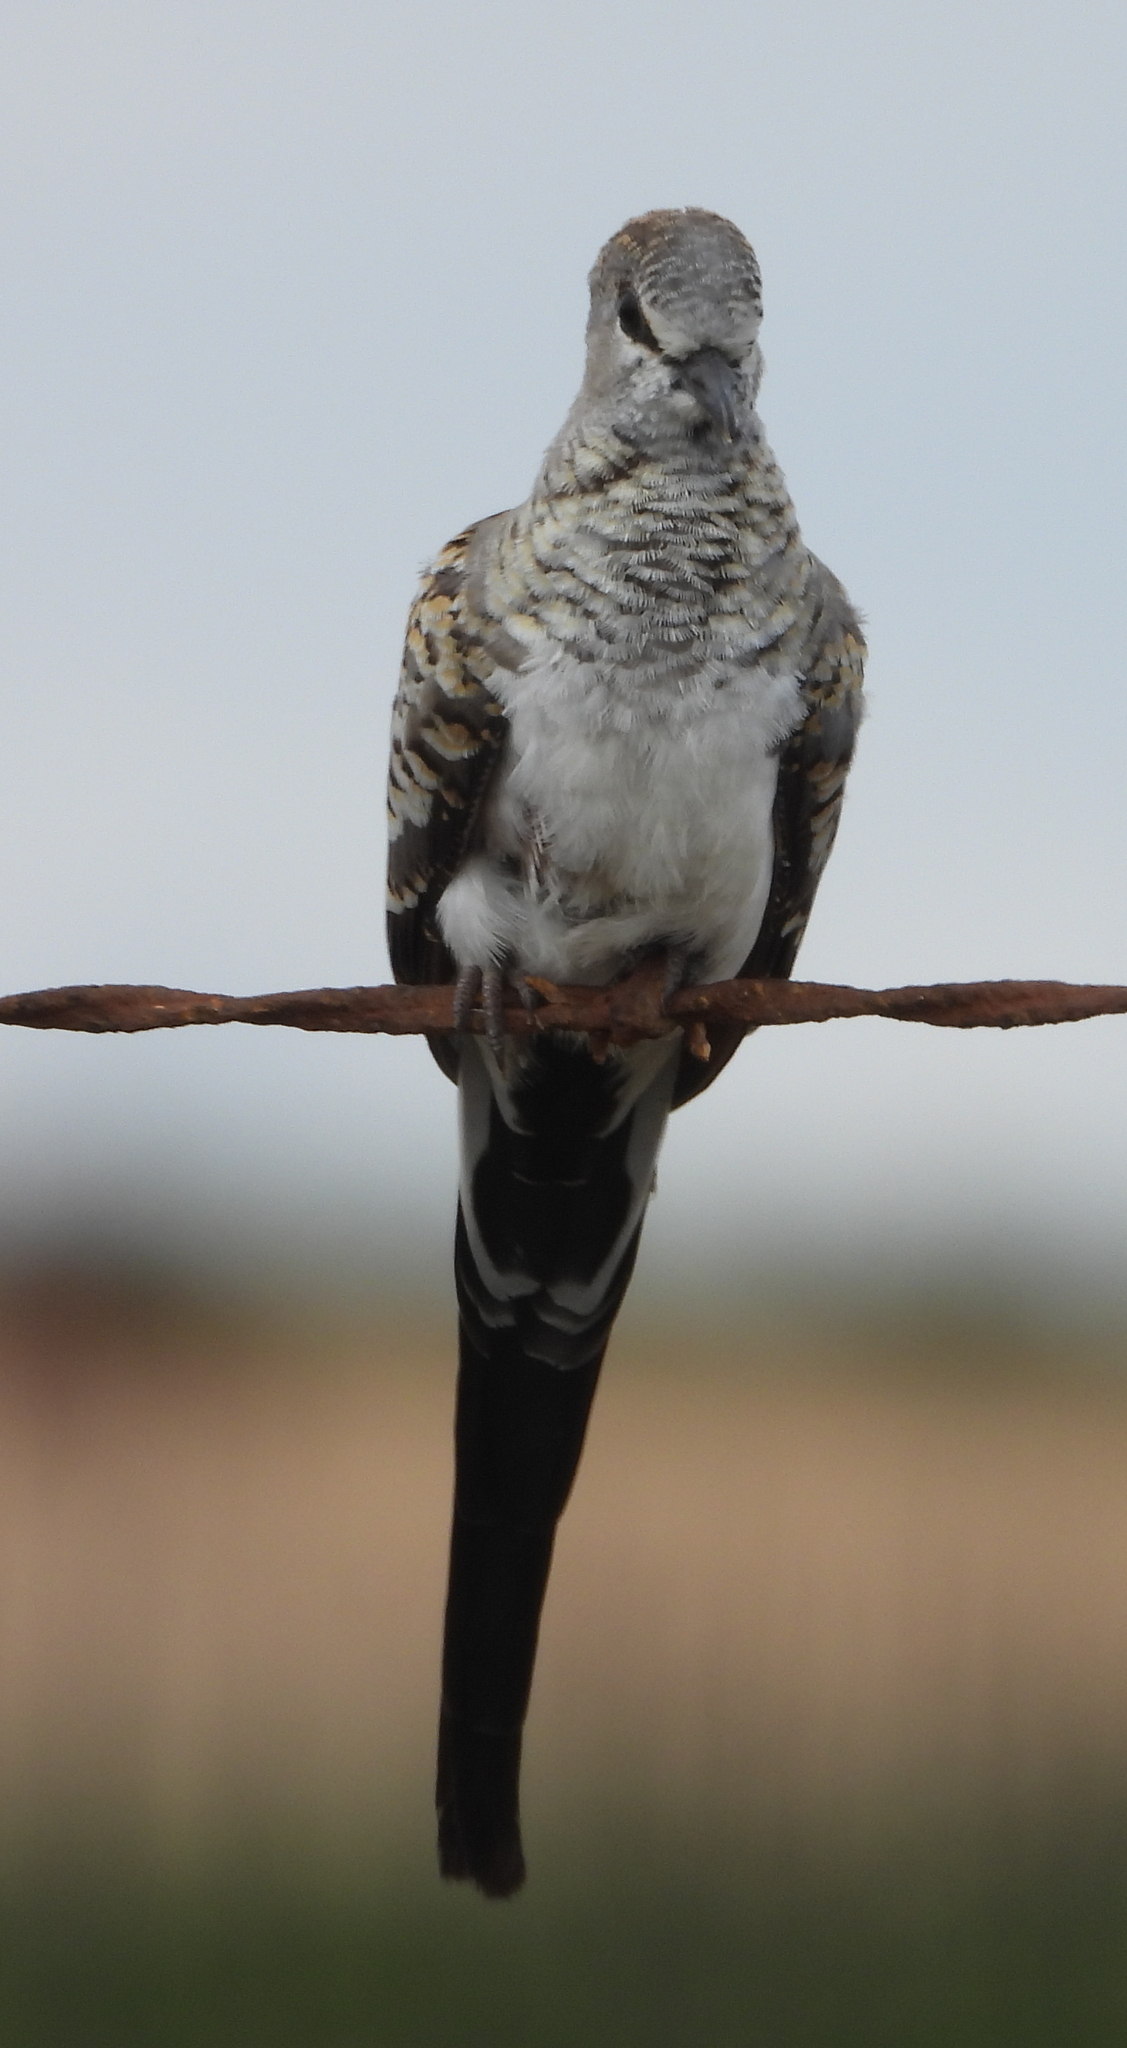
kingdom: Animalia
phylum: Chordata
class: Aves
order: Columbiformes
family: Columbidae
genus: Oena
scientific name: Oena capensis
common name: Namaqua dove
